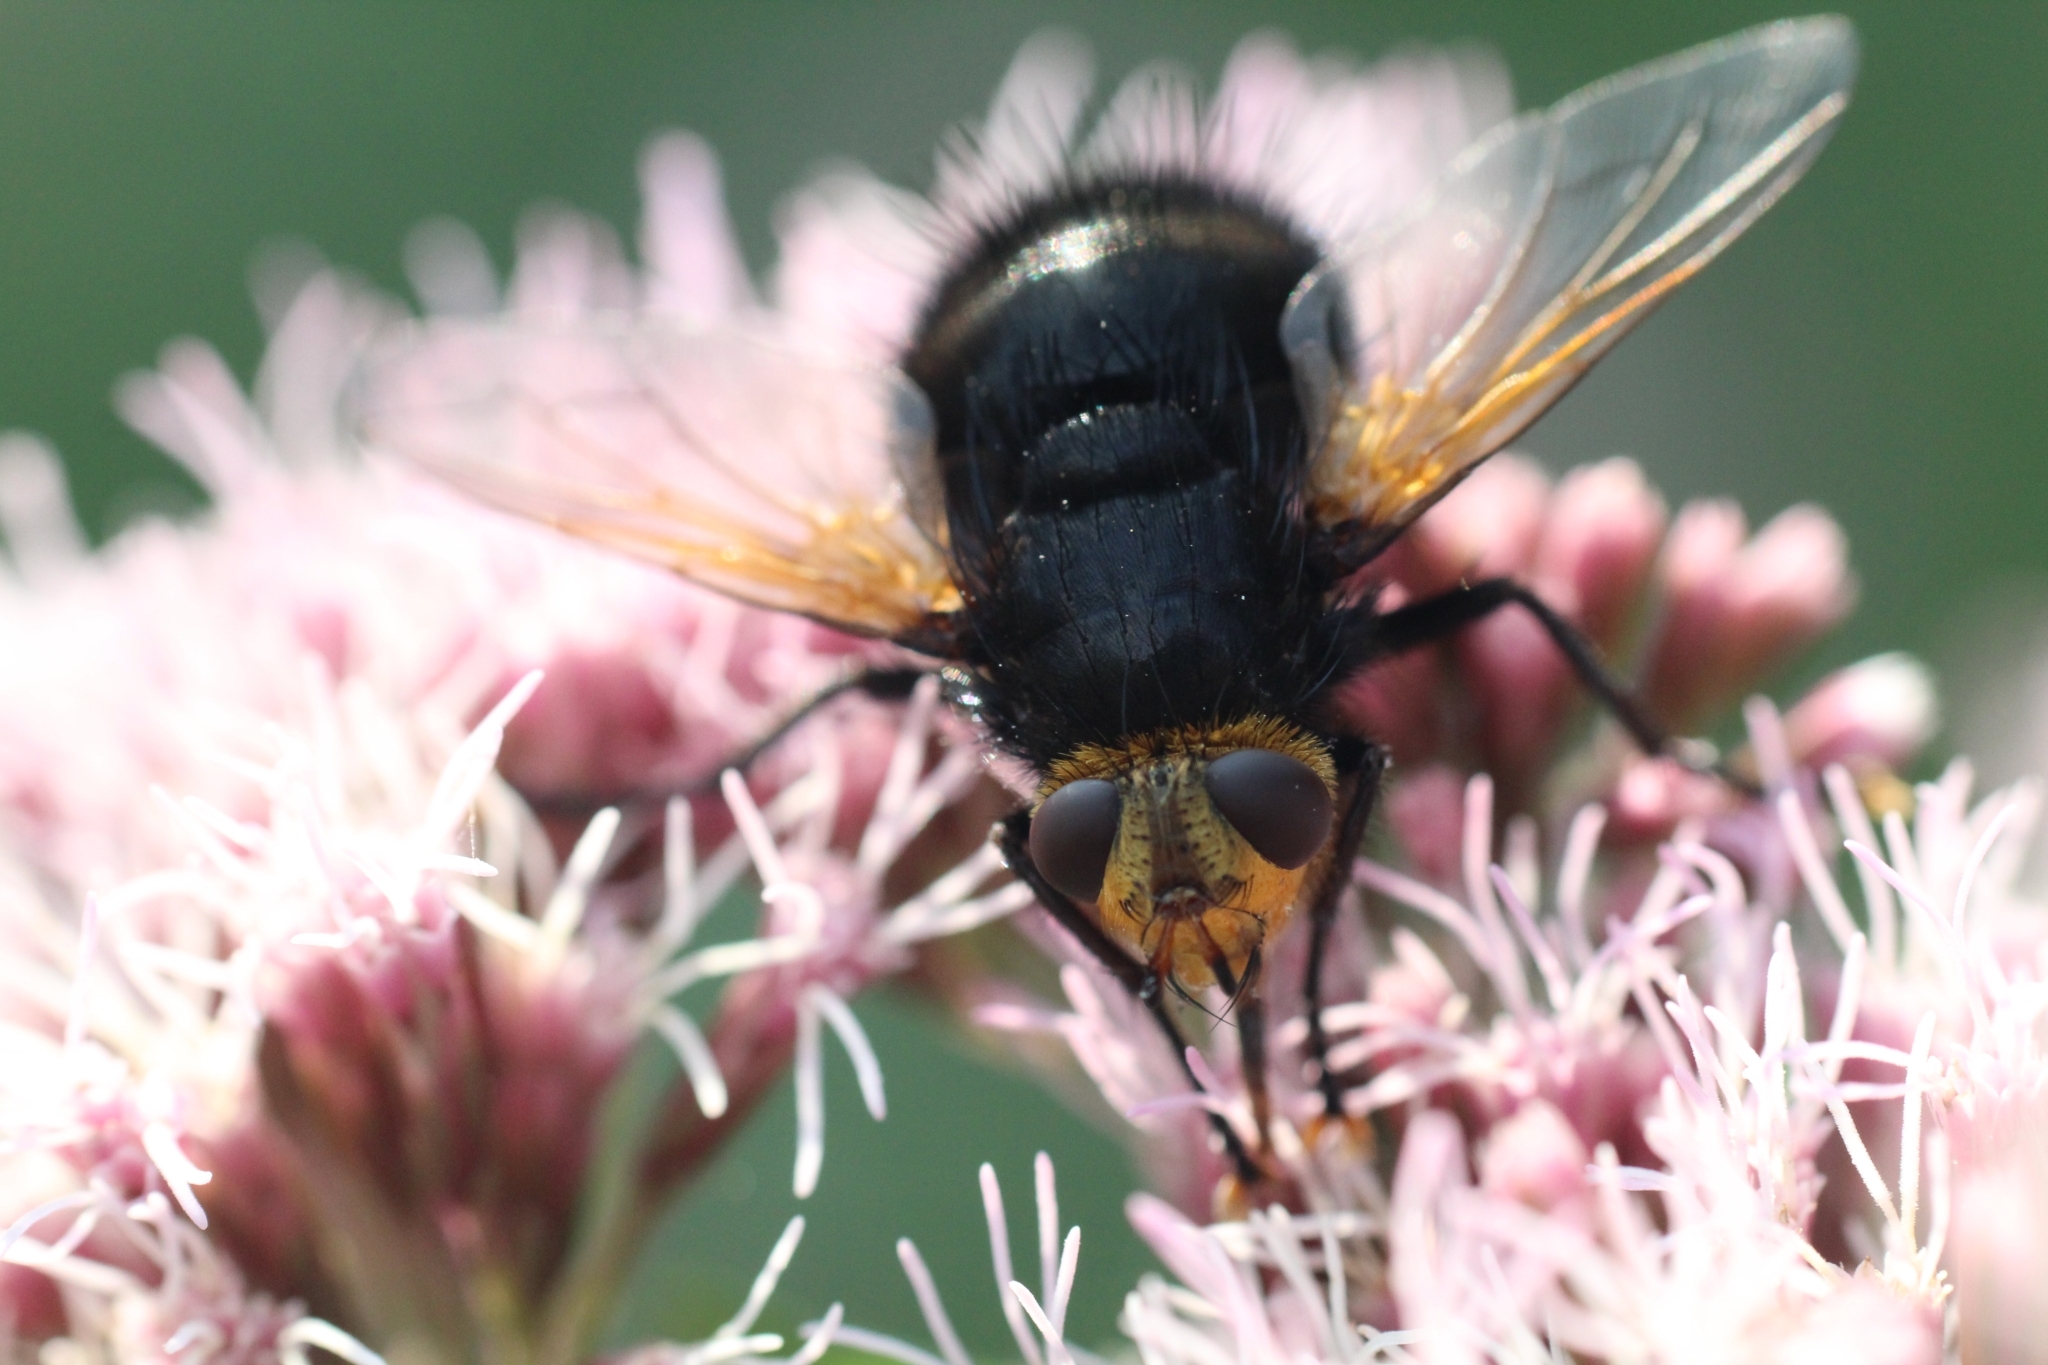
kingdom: Animalia
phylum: Arthropoda
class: Insecta
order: Diptera
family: Tachinidae
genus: Tachina
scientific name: Tachina grossa
